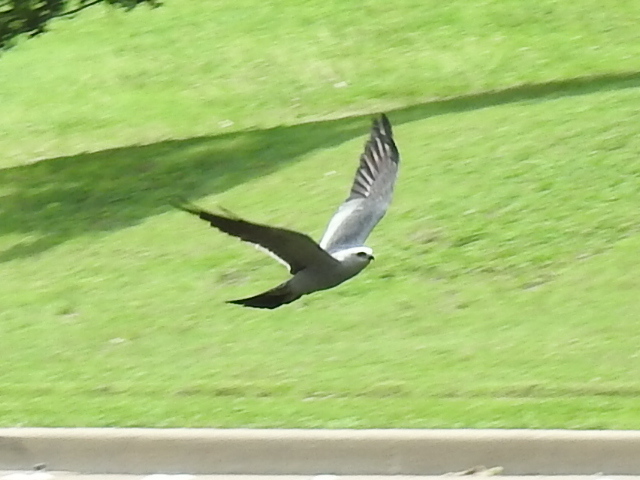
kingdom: Animalia
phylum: Chordata
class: Aves
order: Accipitriformes
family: Accipitridae
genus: Ictinia
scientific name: Ictinia mississippiensis
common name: Mississippi kite
